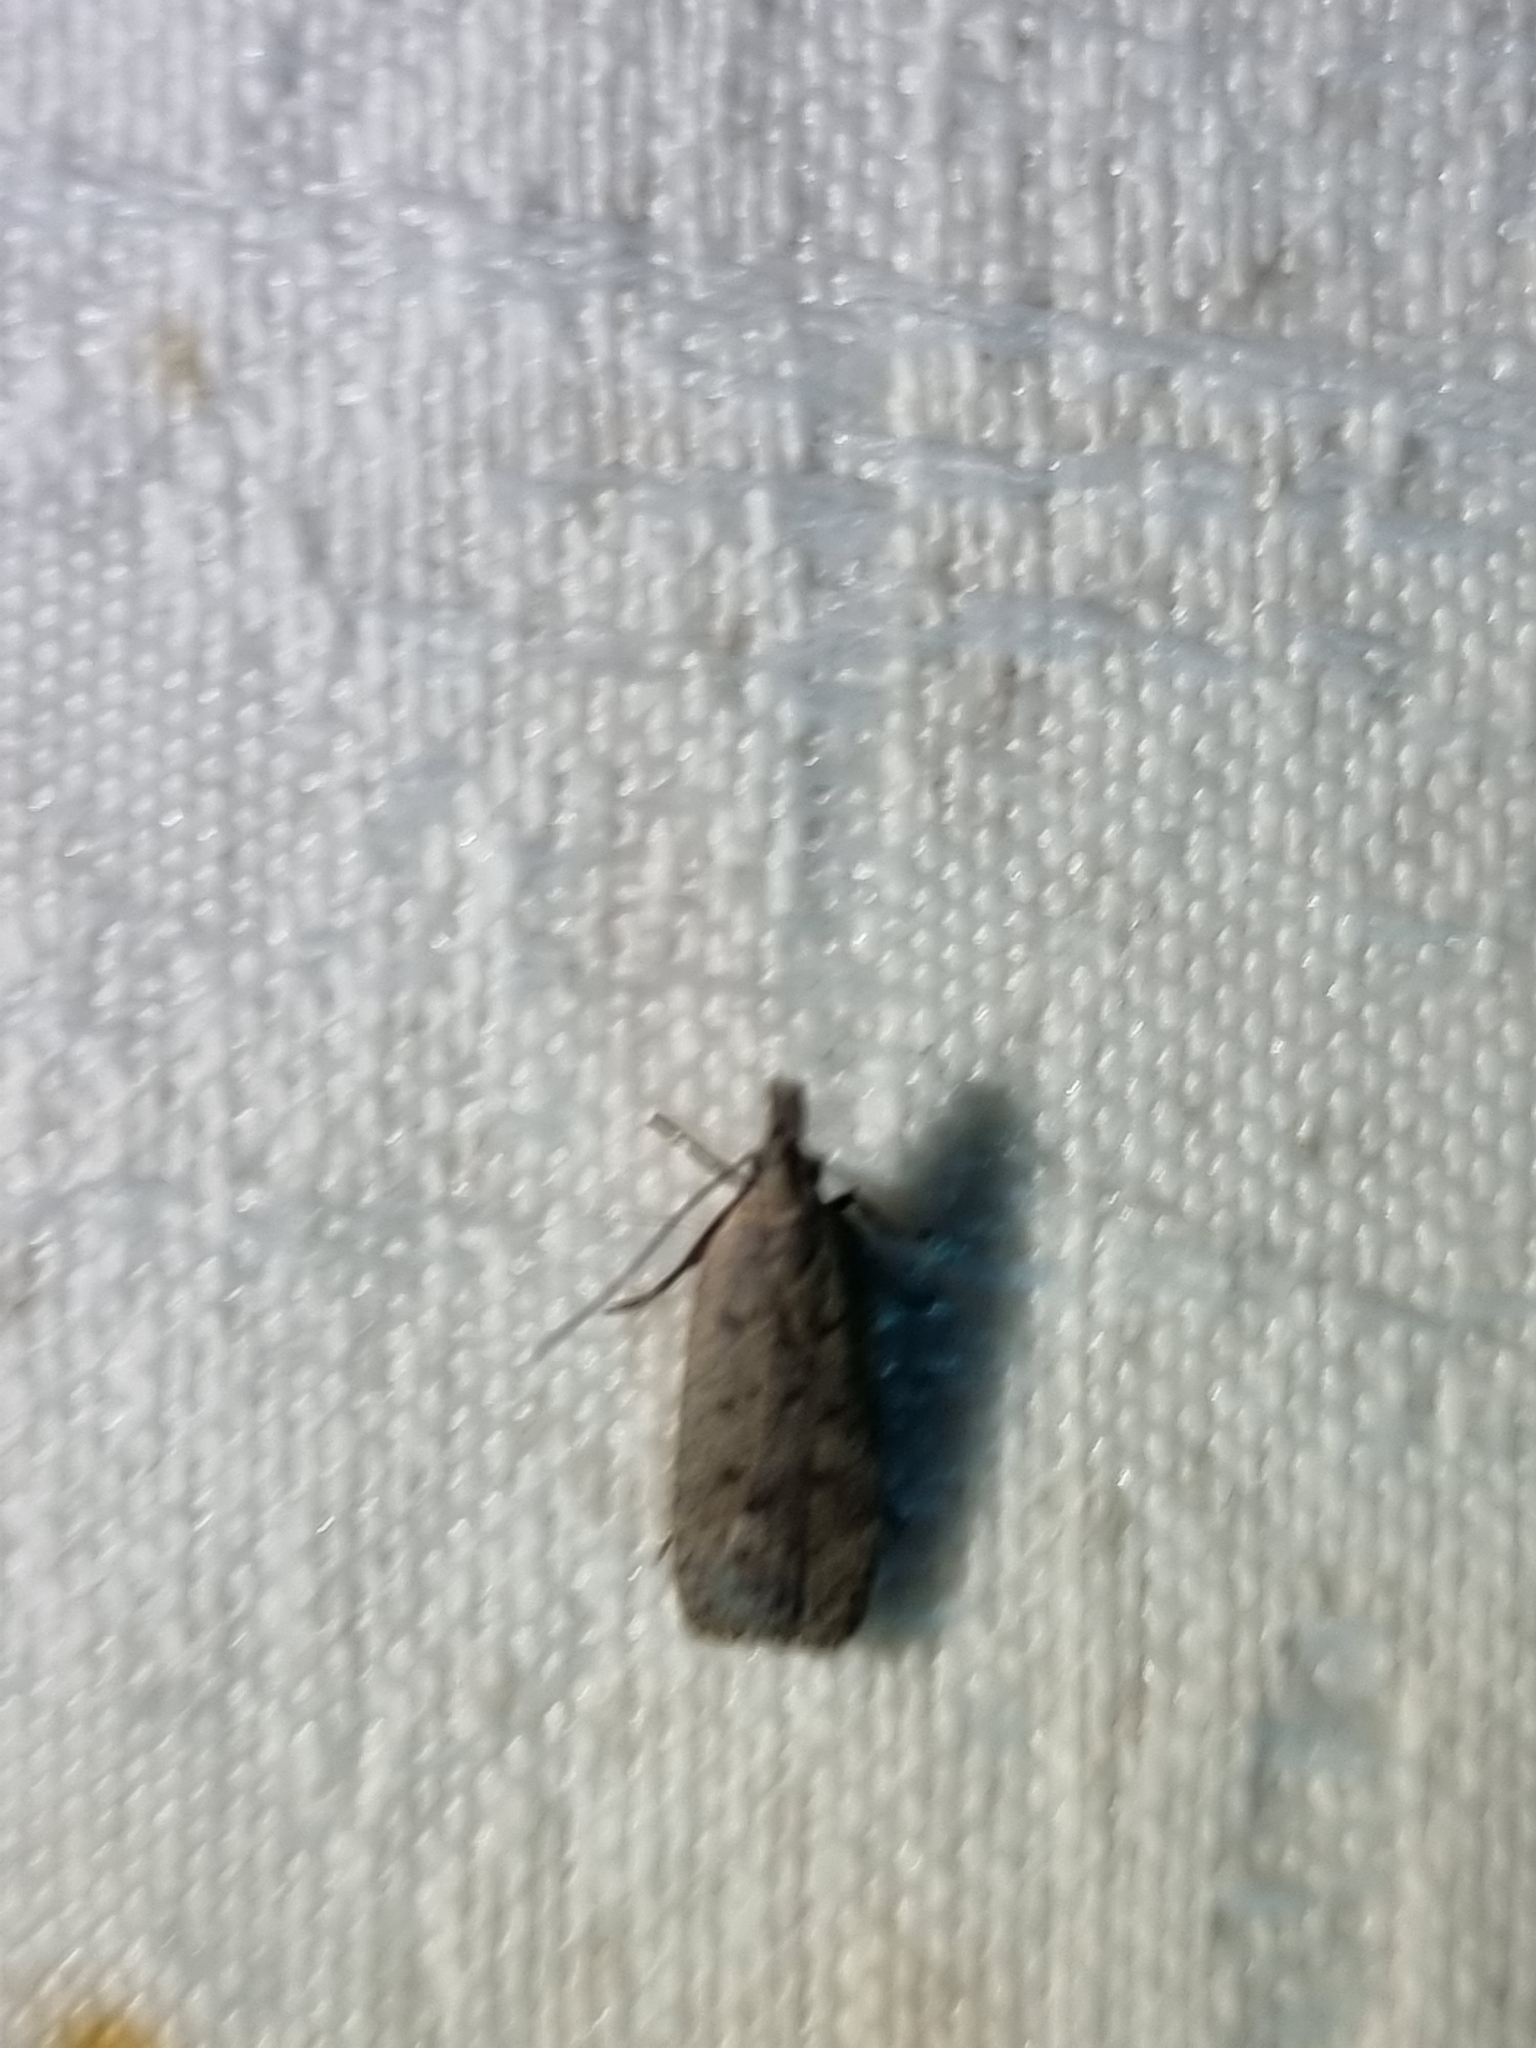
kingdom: Animalia
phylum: Arthropoda
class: Insecta
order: Lepidoptera
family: Gelechiidae
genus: Dichomeris
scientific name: Dichomeris capnites
